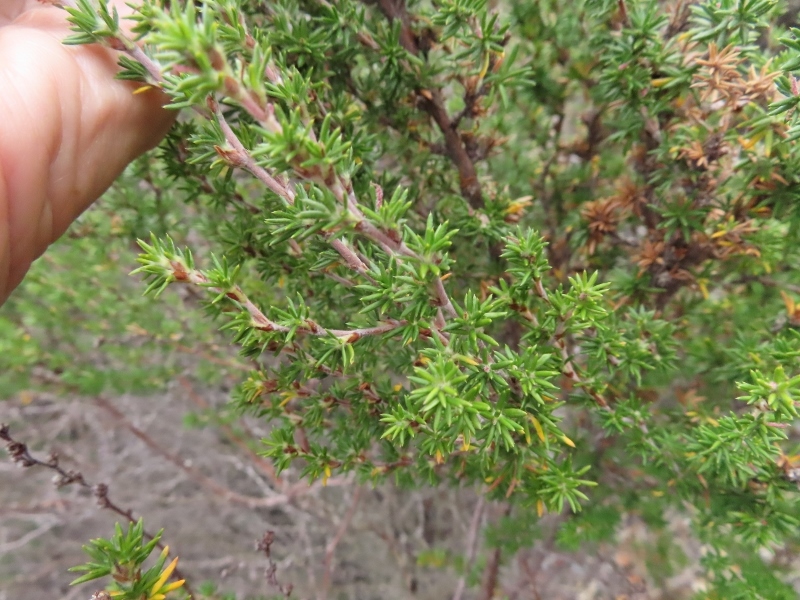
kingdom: Plantae
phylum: Tracheophyta
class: Magnoliopsida
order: Rosales
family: Rosaceae
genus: Cliffortia
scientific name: Cliffortia stricta
